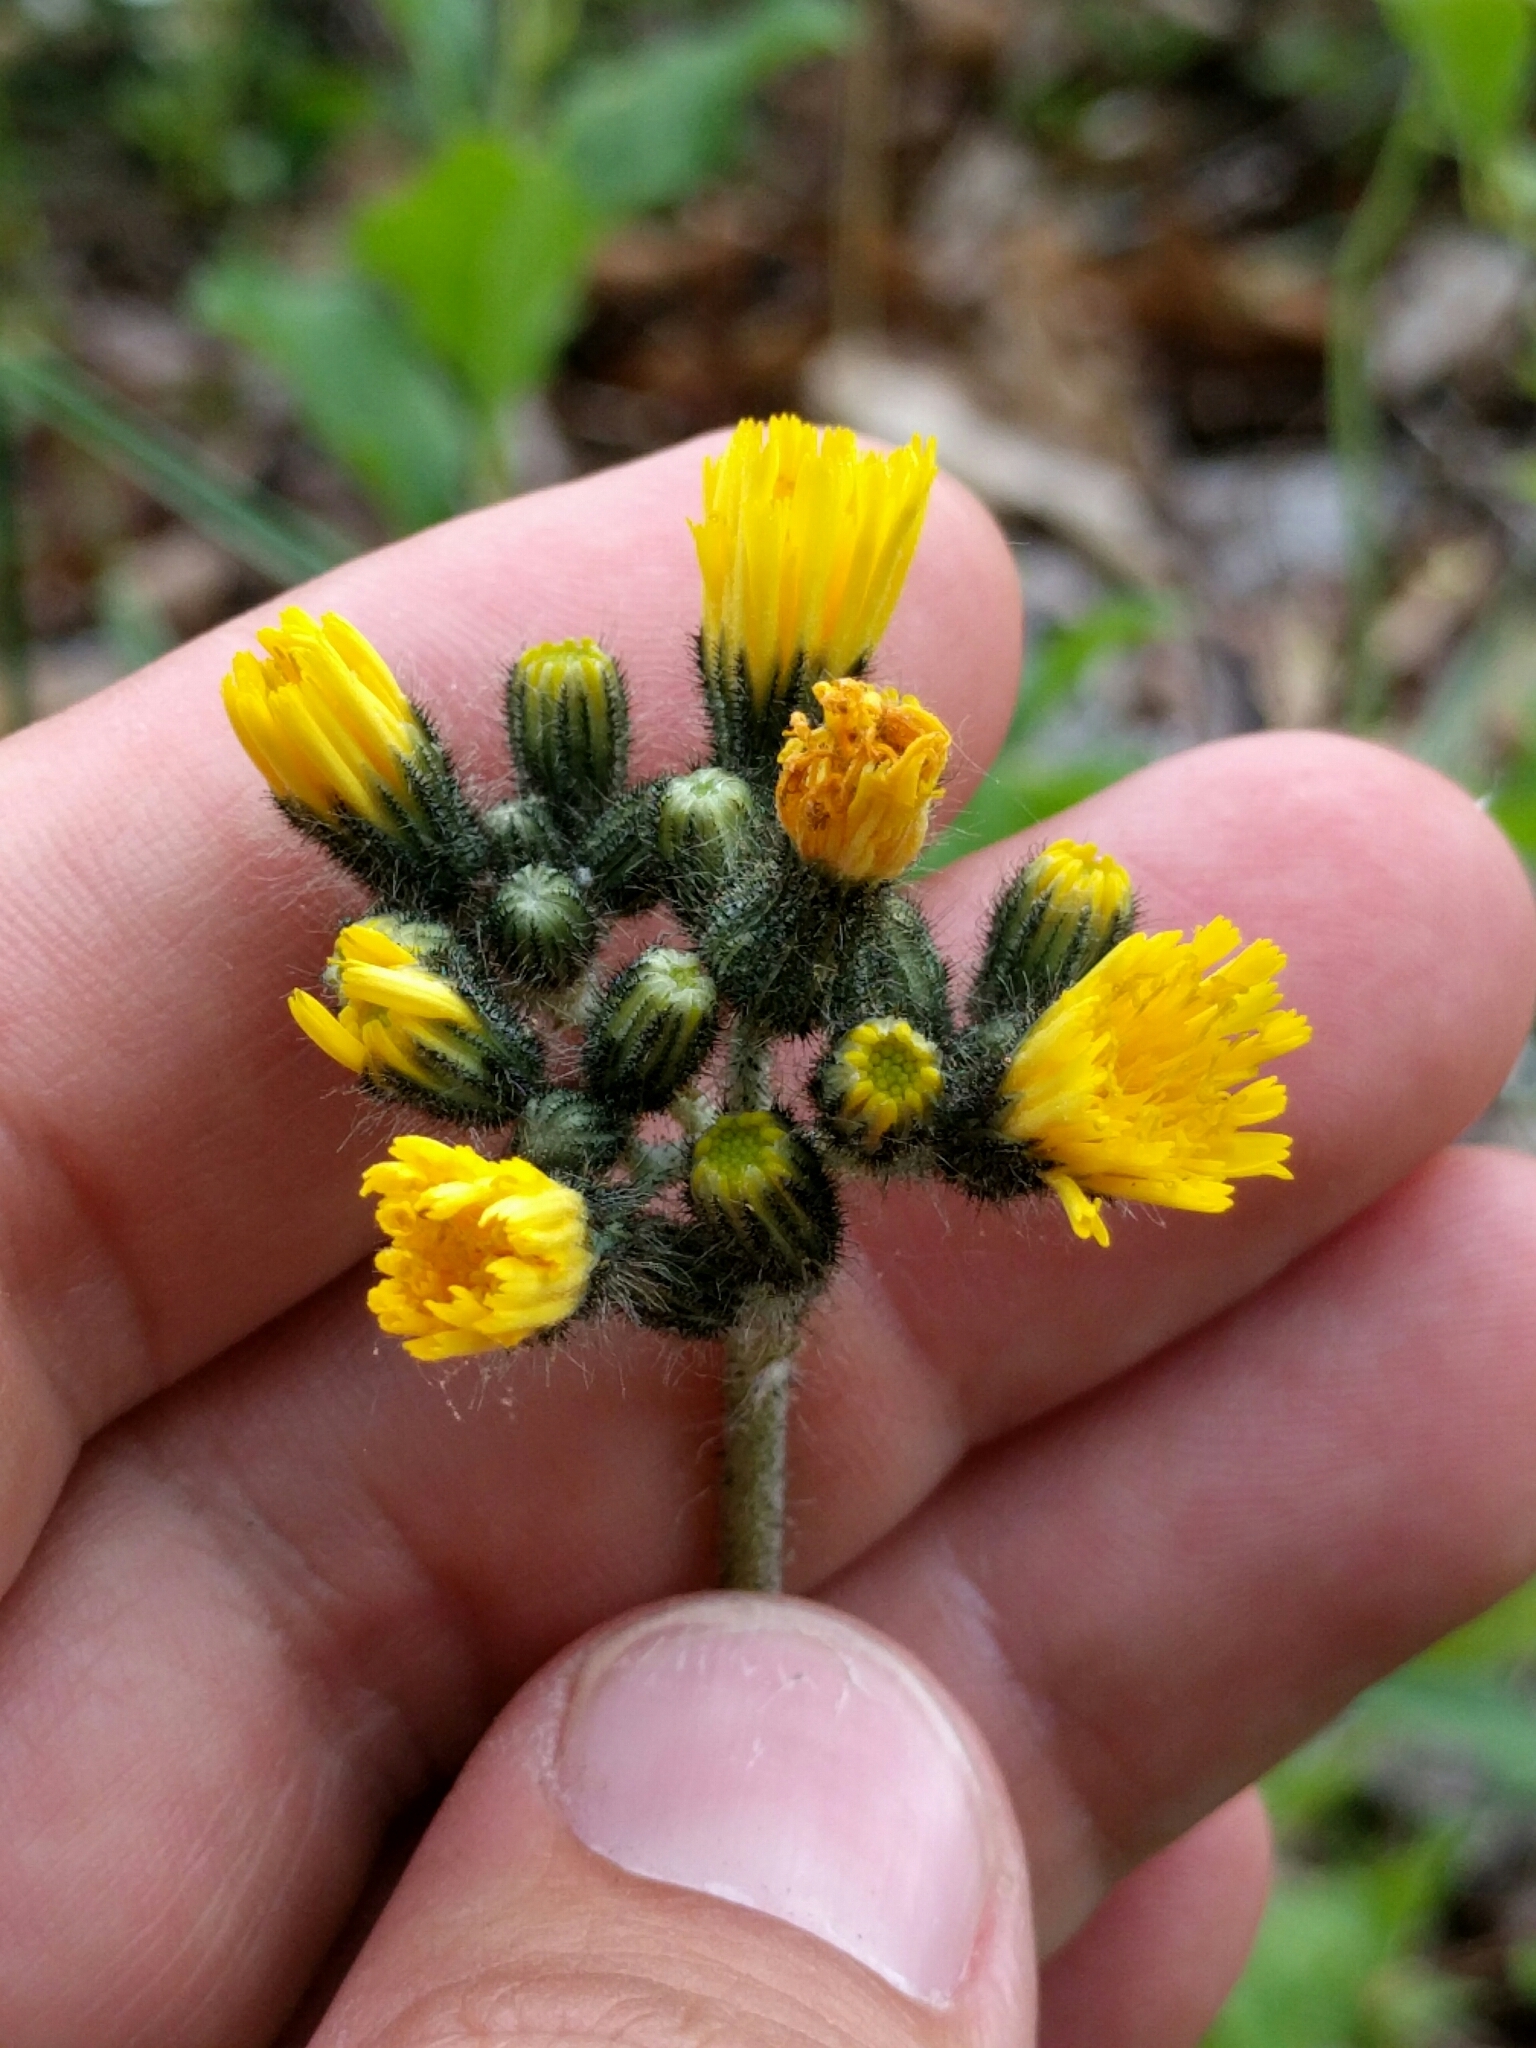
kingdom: Plantae
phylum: Tracheophyta
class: Magnoliopsida
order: Asterales
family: Asteraceae
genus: Pilosella
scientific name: Pilosella caespitosa
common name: Yellow fox-and-cubs
